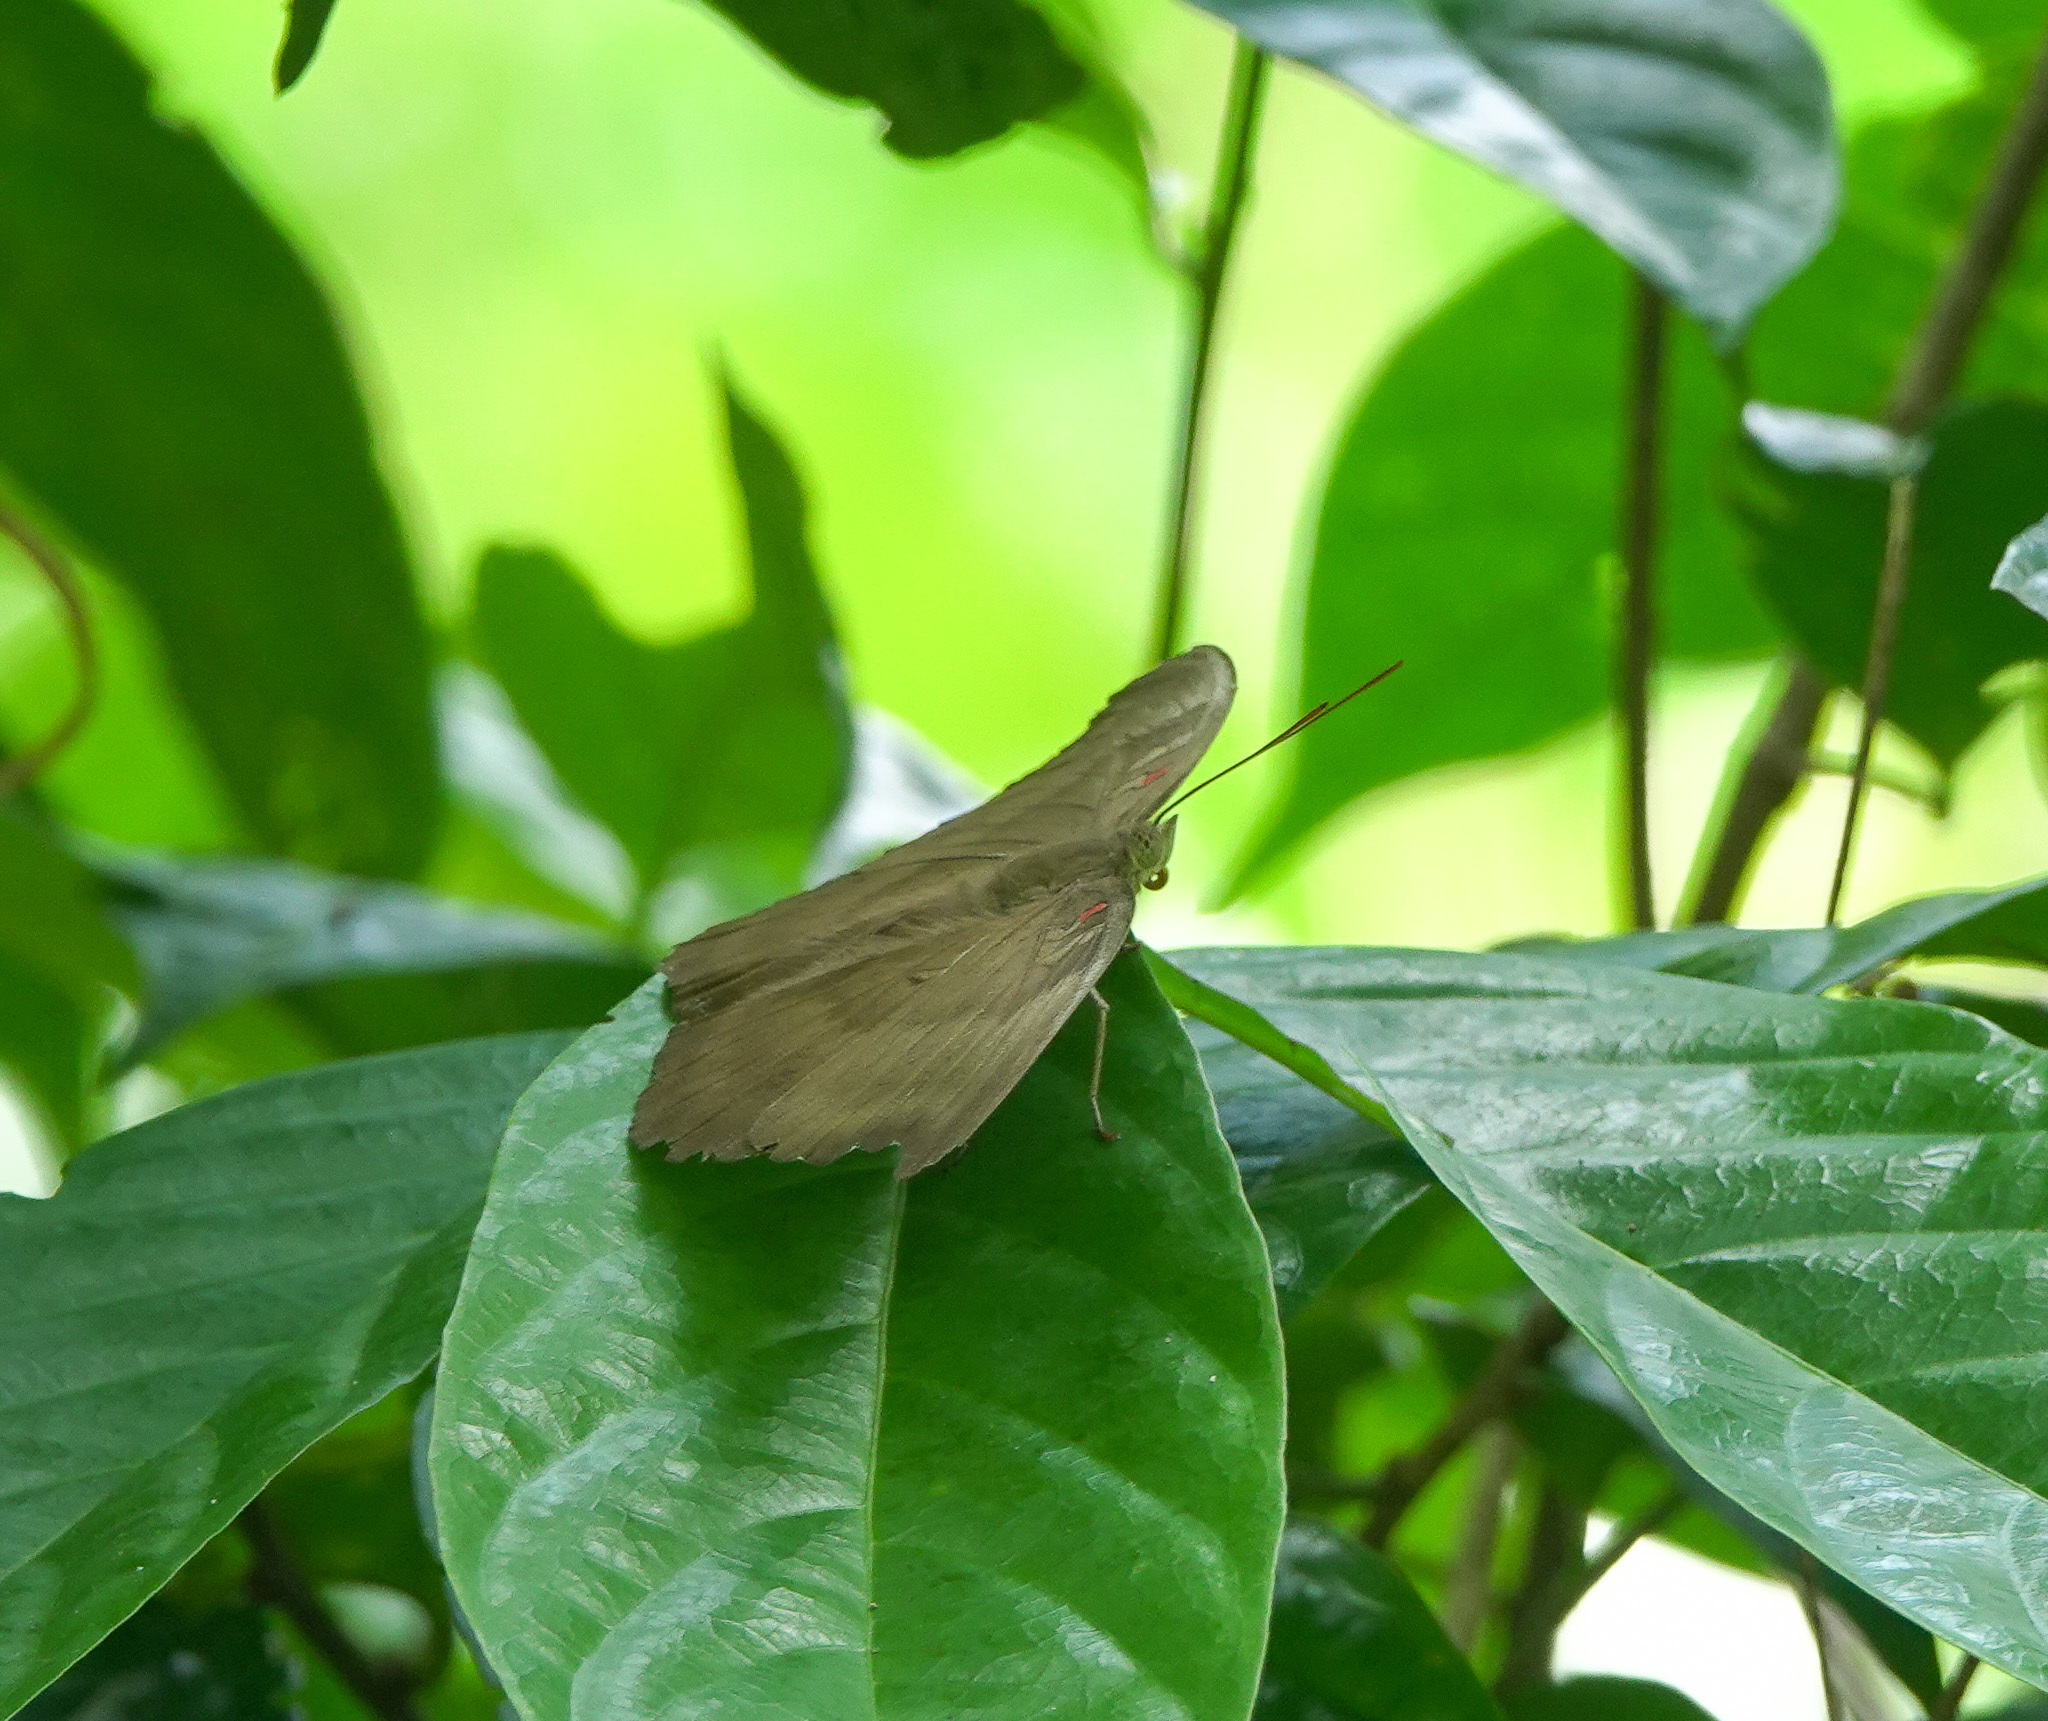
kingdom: Animalia
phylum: Arthropoda
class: Insecta
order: Lepidoptera
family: Nymphalidae
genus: Euthalia
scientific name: Euthalia Dophla evelina
